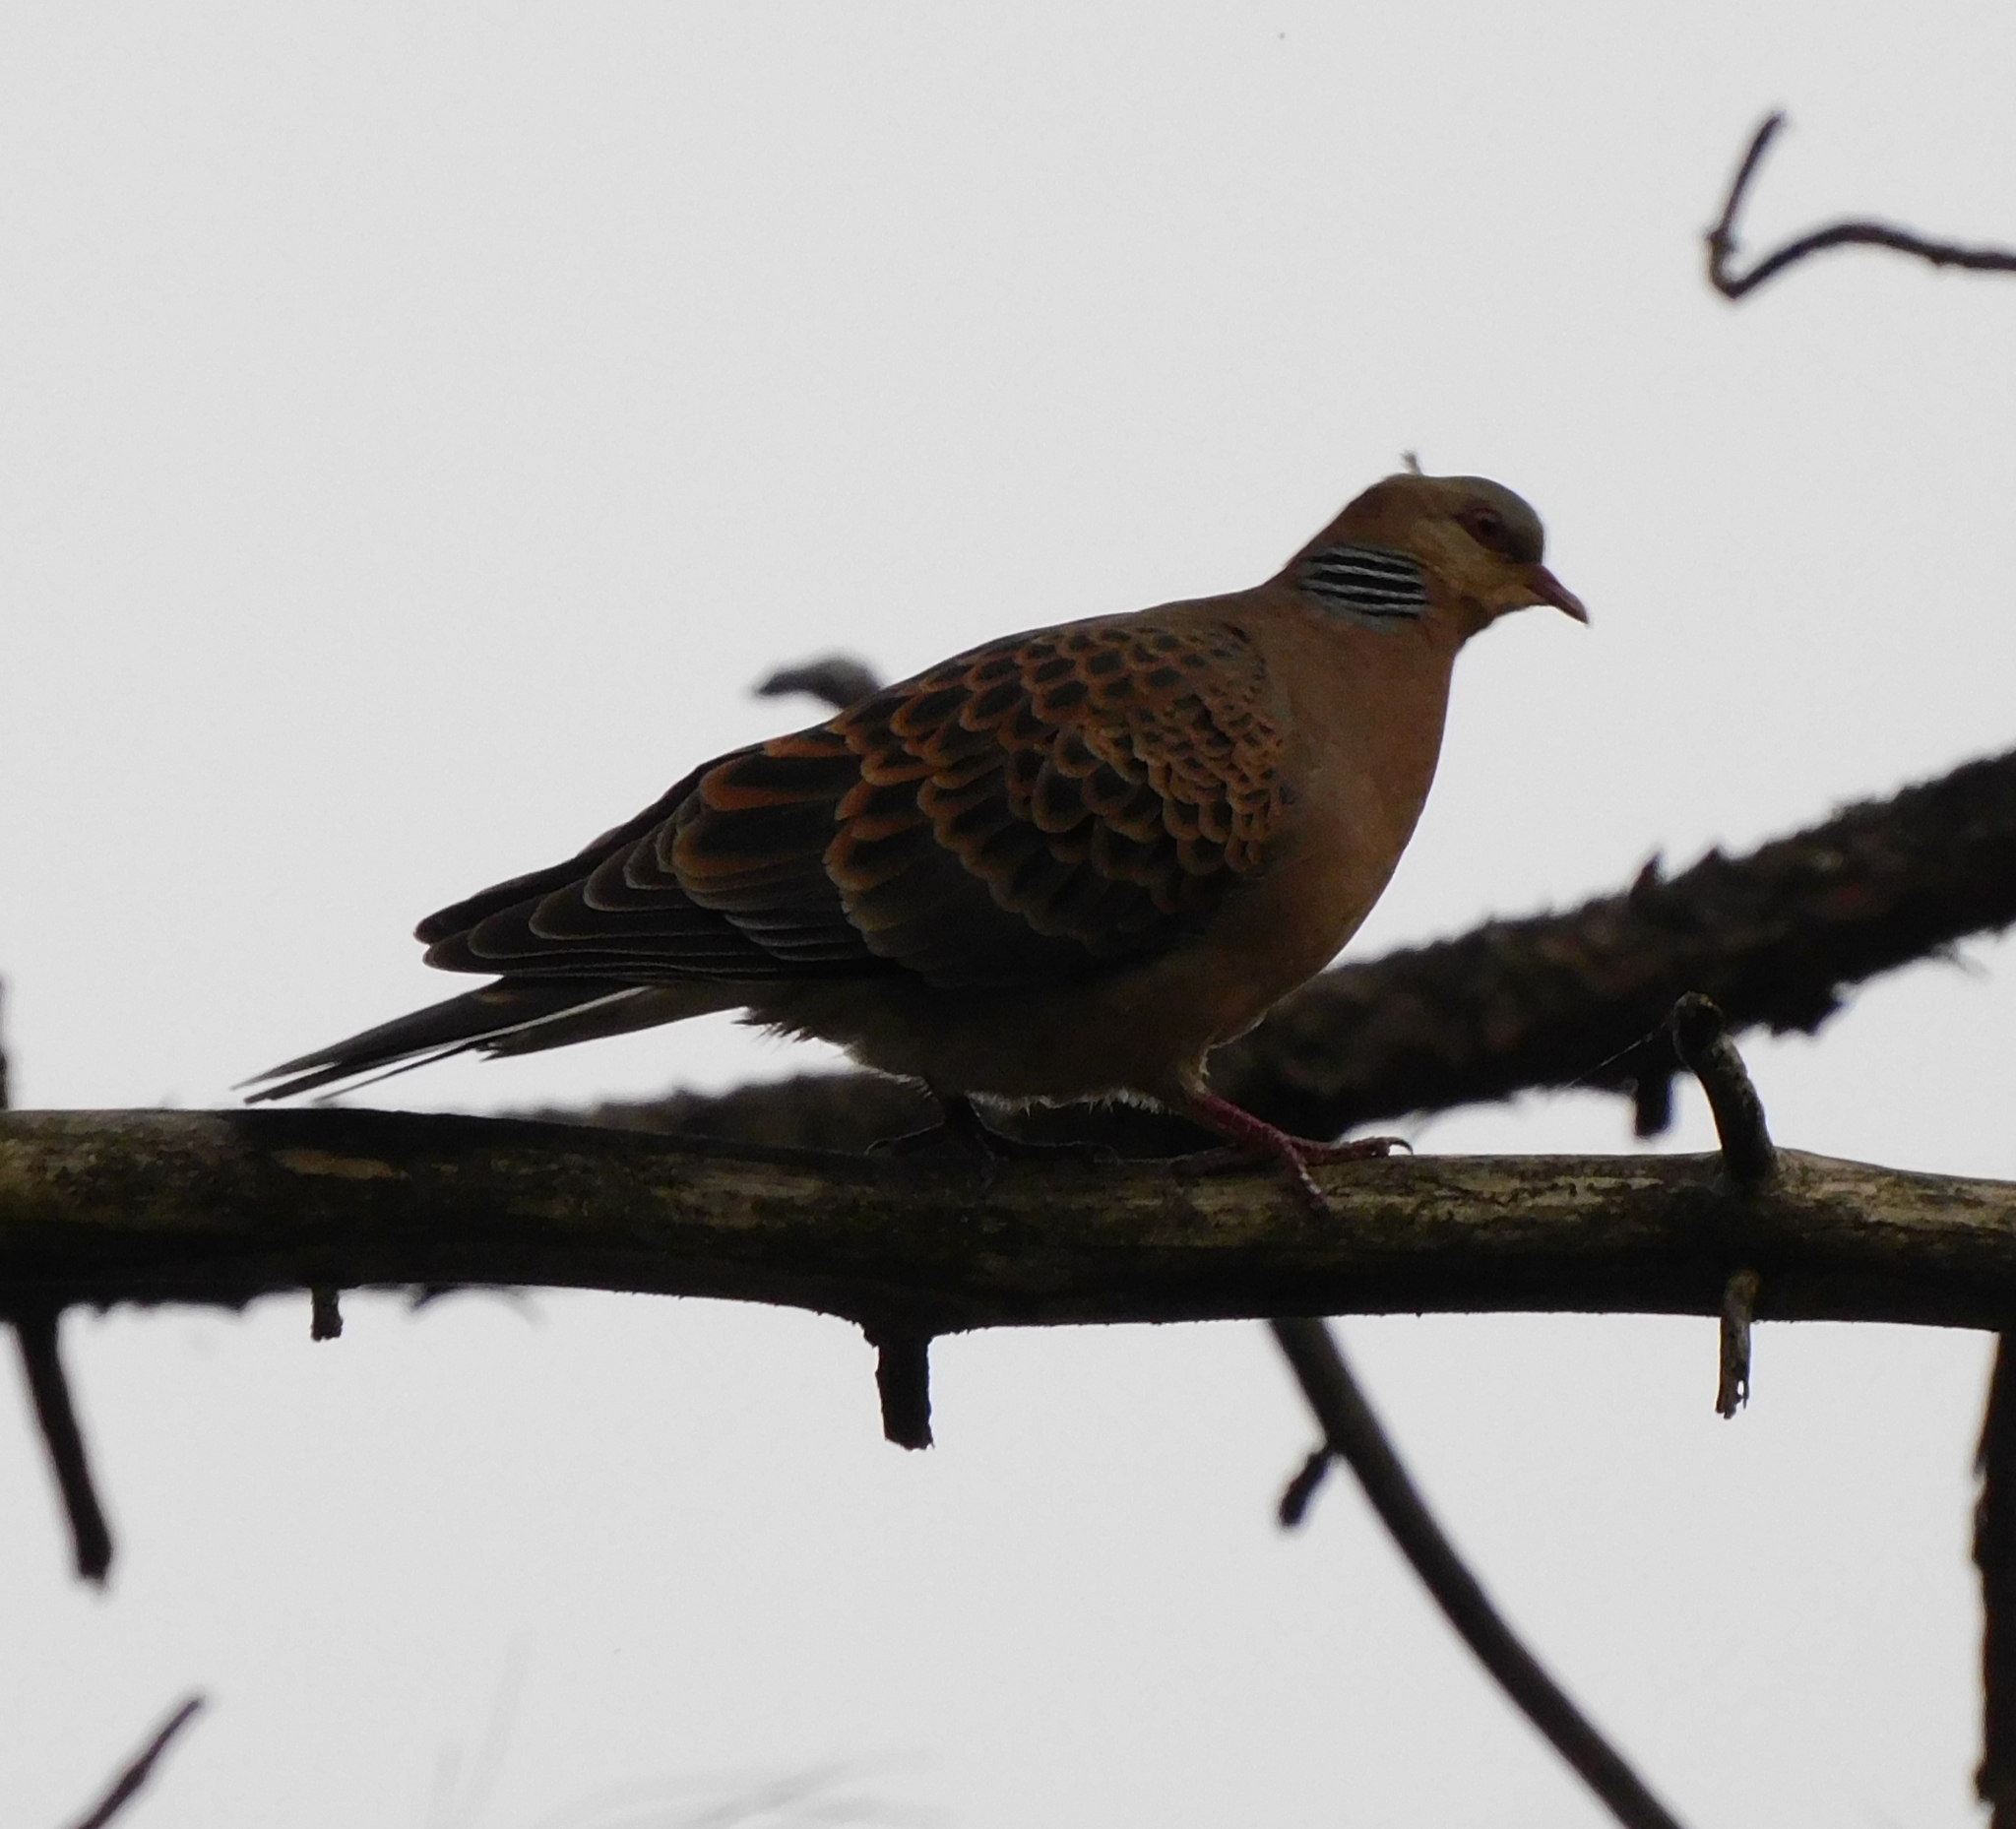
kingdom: Animalia
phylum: Chordata
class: Aves
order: Columbiformes
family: Columbidae
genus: Streptopelia
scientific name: Streptopelia orientalis
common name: Oriental turtle dove
